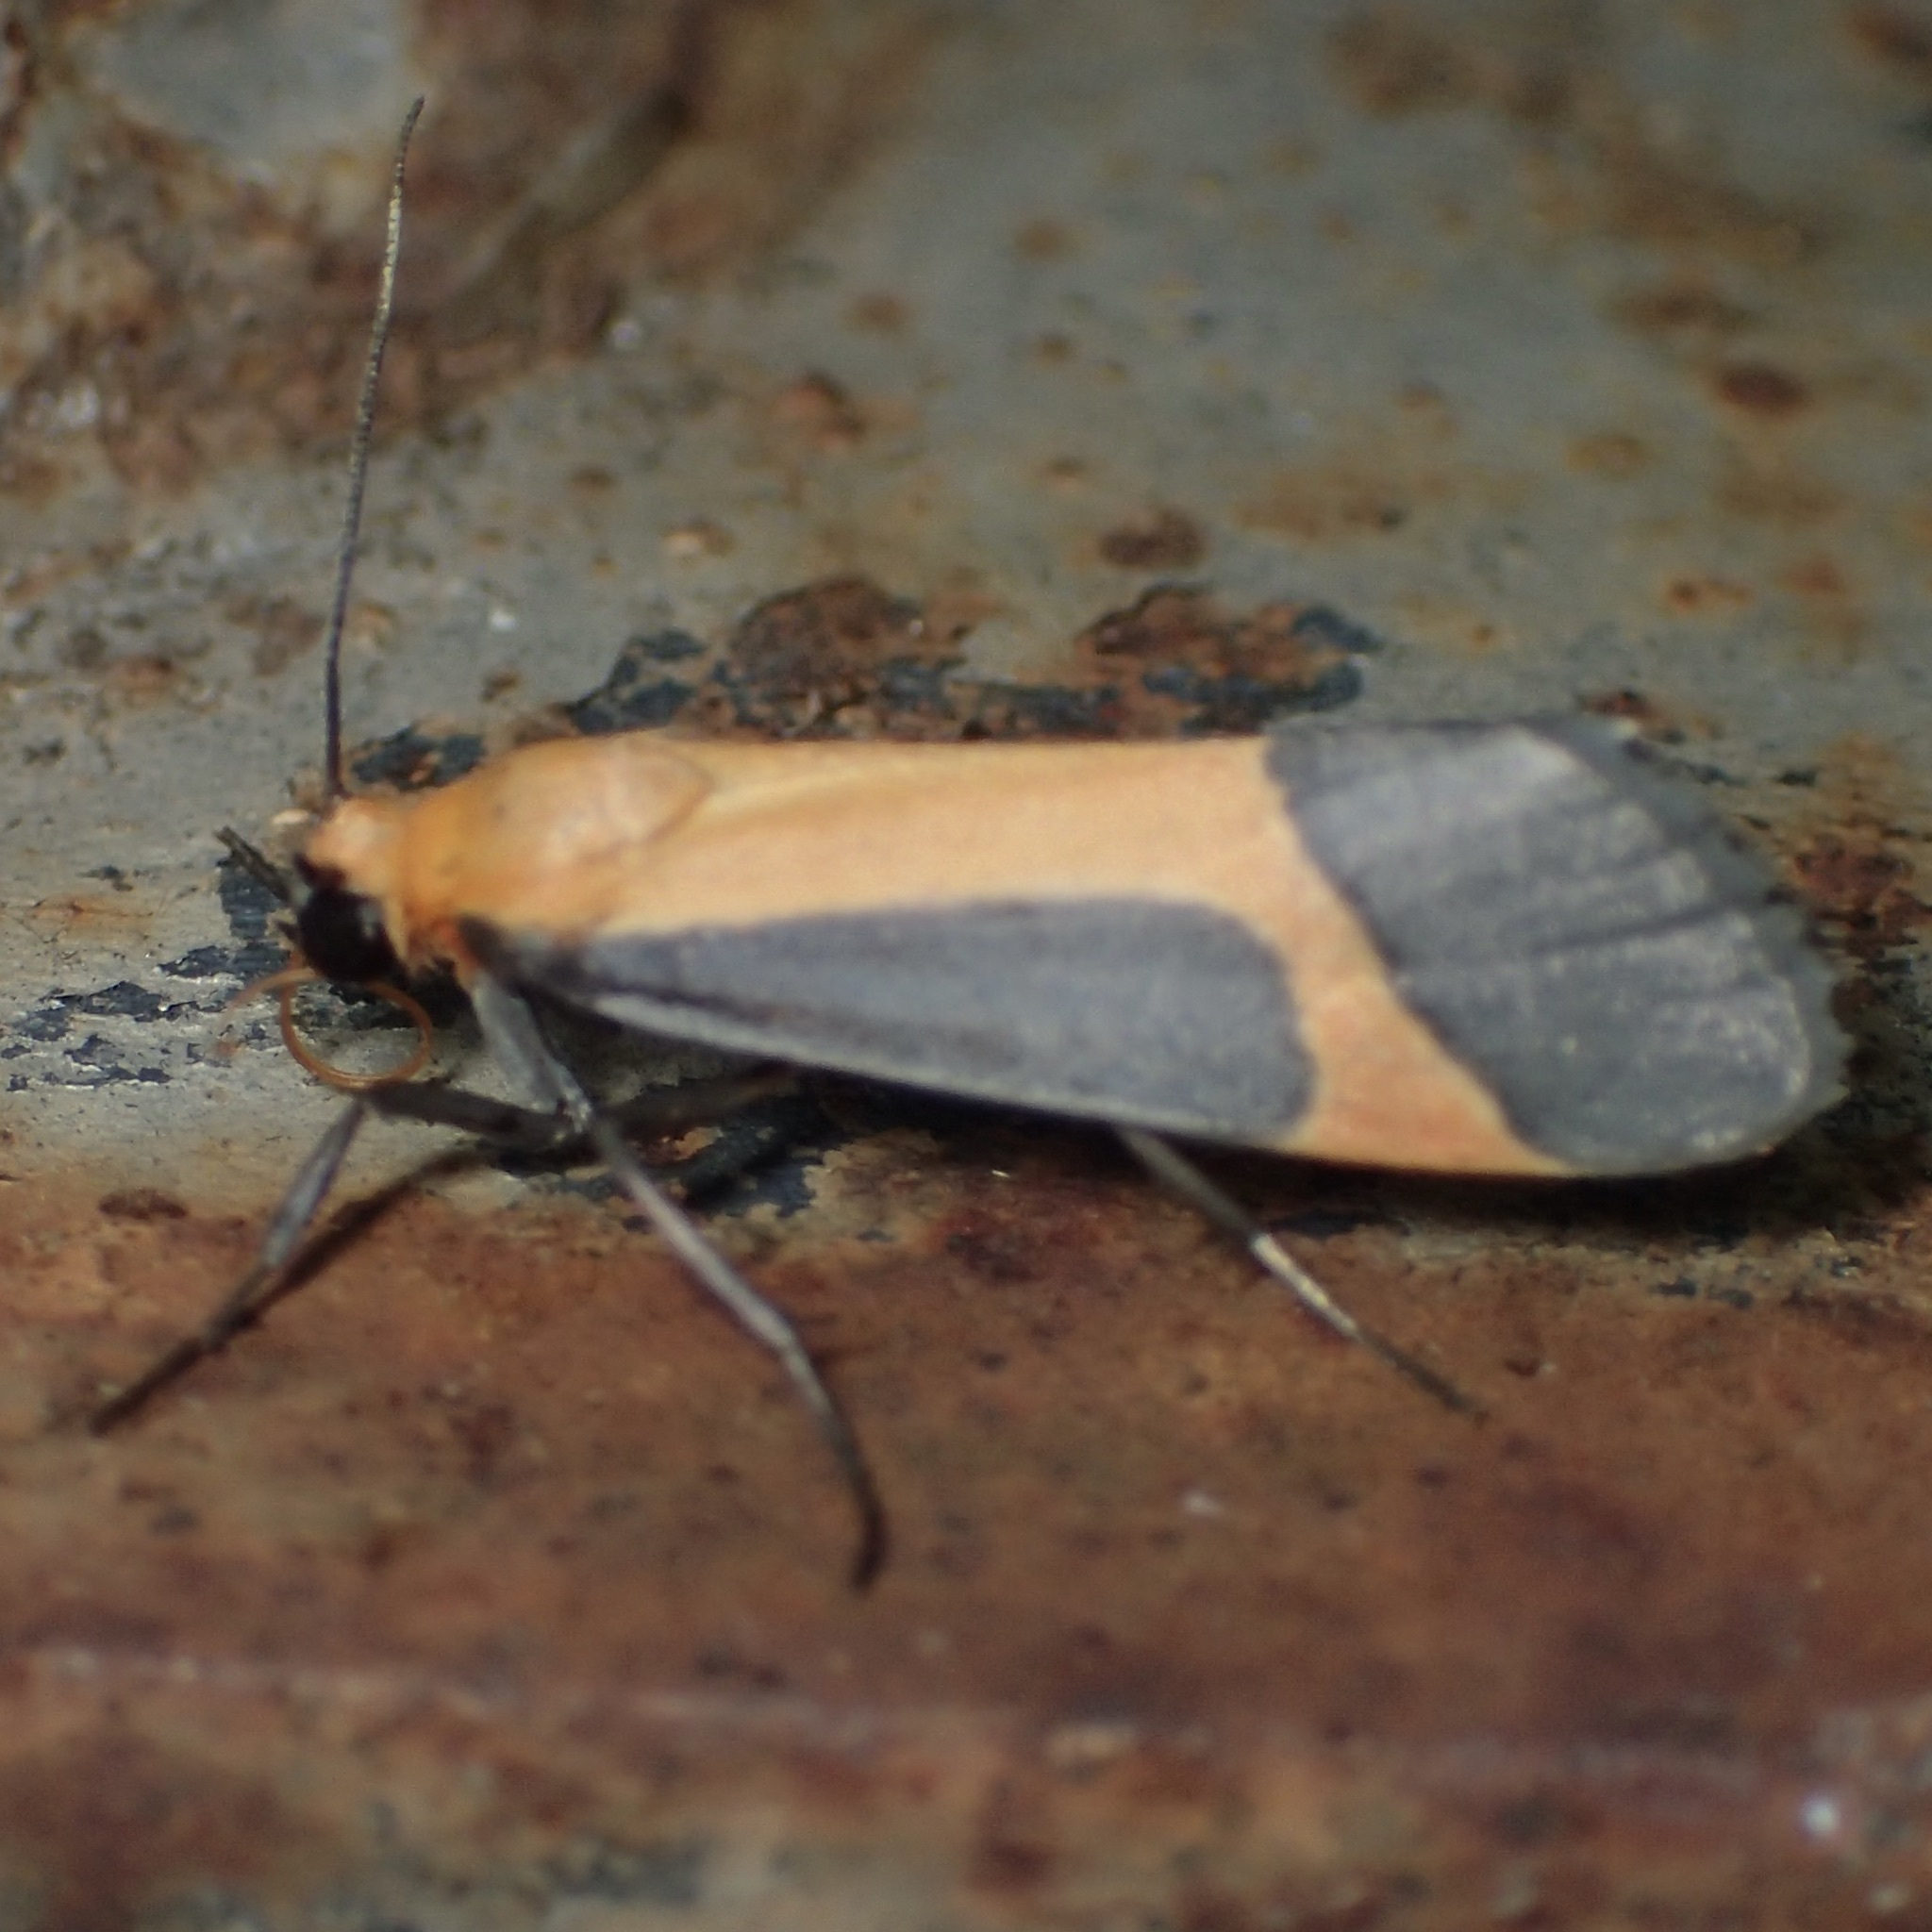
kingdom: Animalia
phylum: Arthropoda
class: Insecta
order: Lepidoptera
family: Erebidae
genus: Cisthene
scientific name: Cisthene angelus
